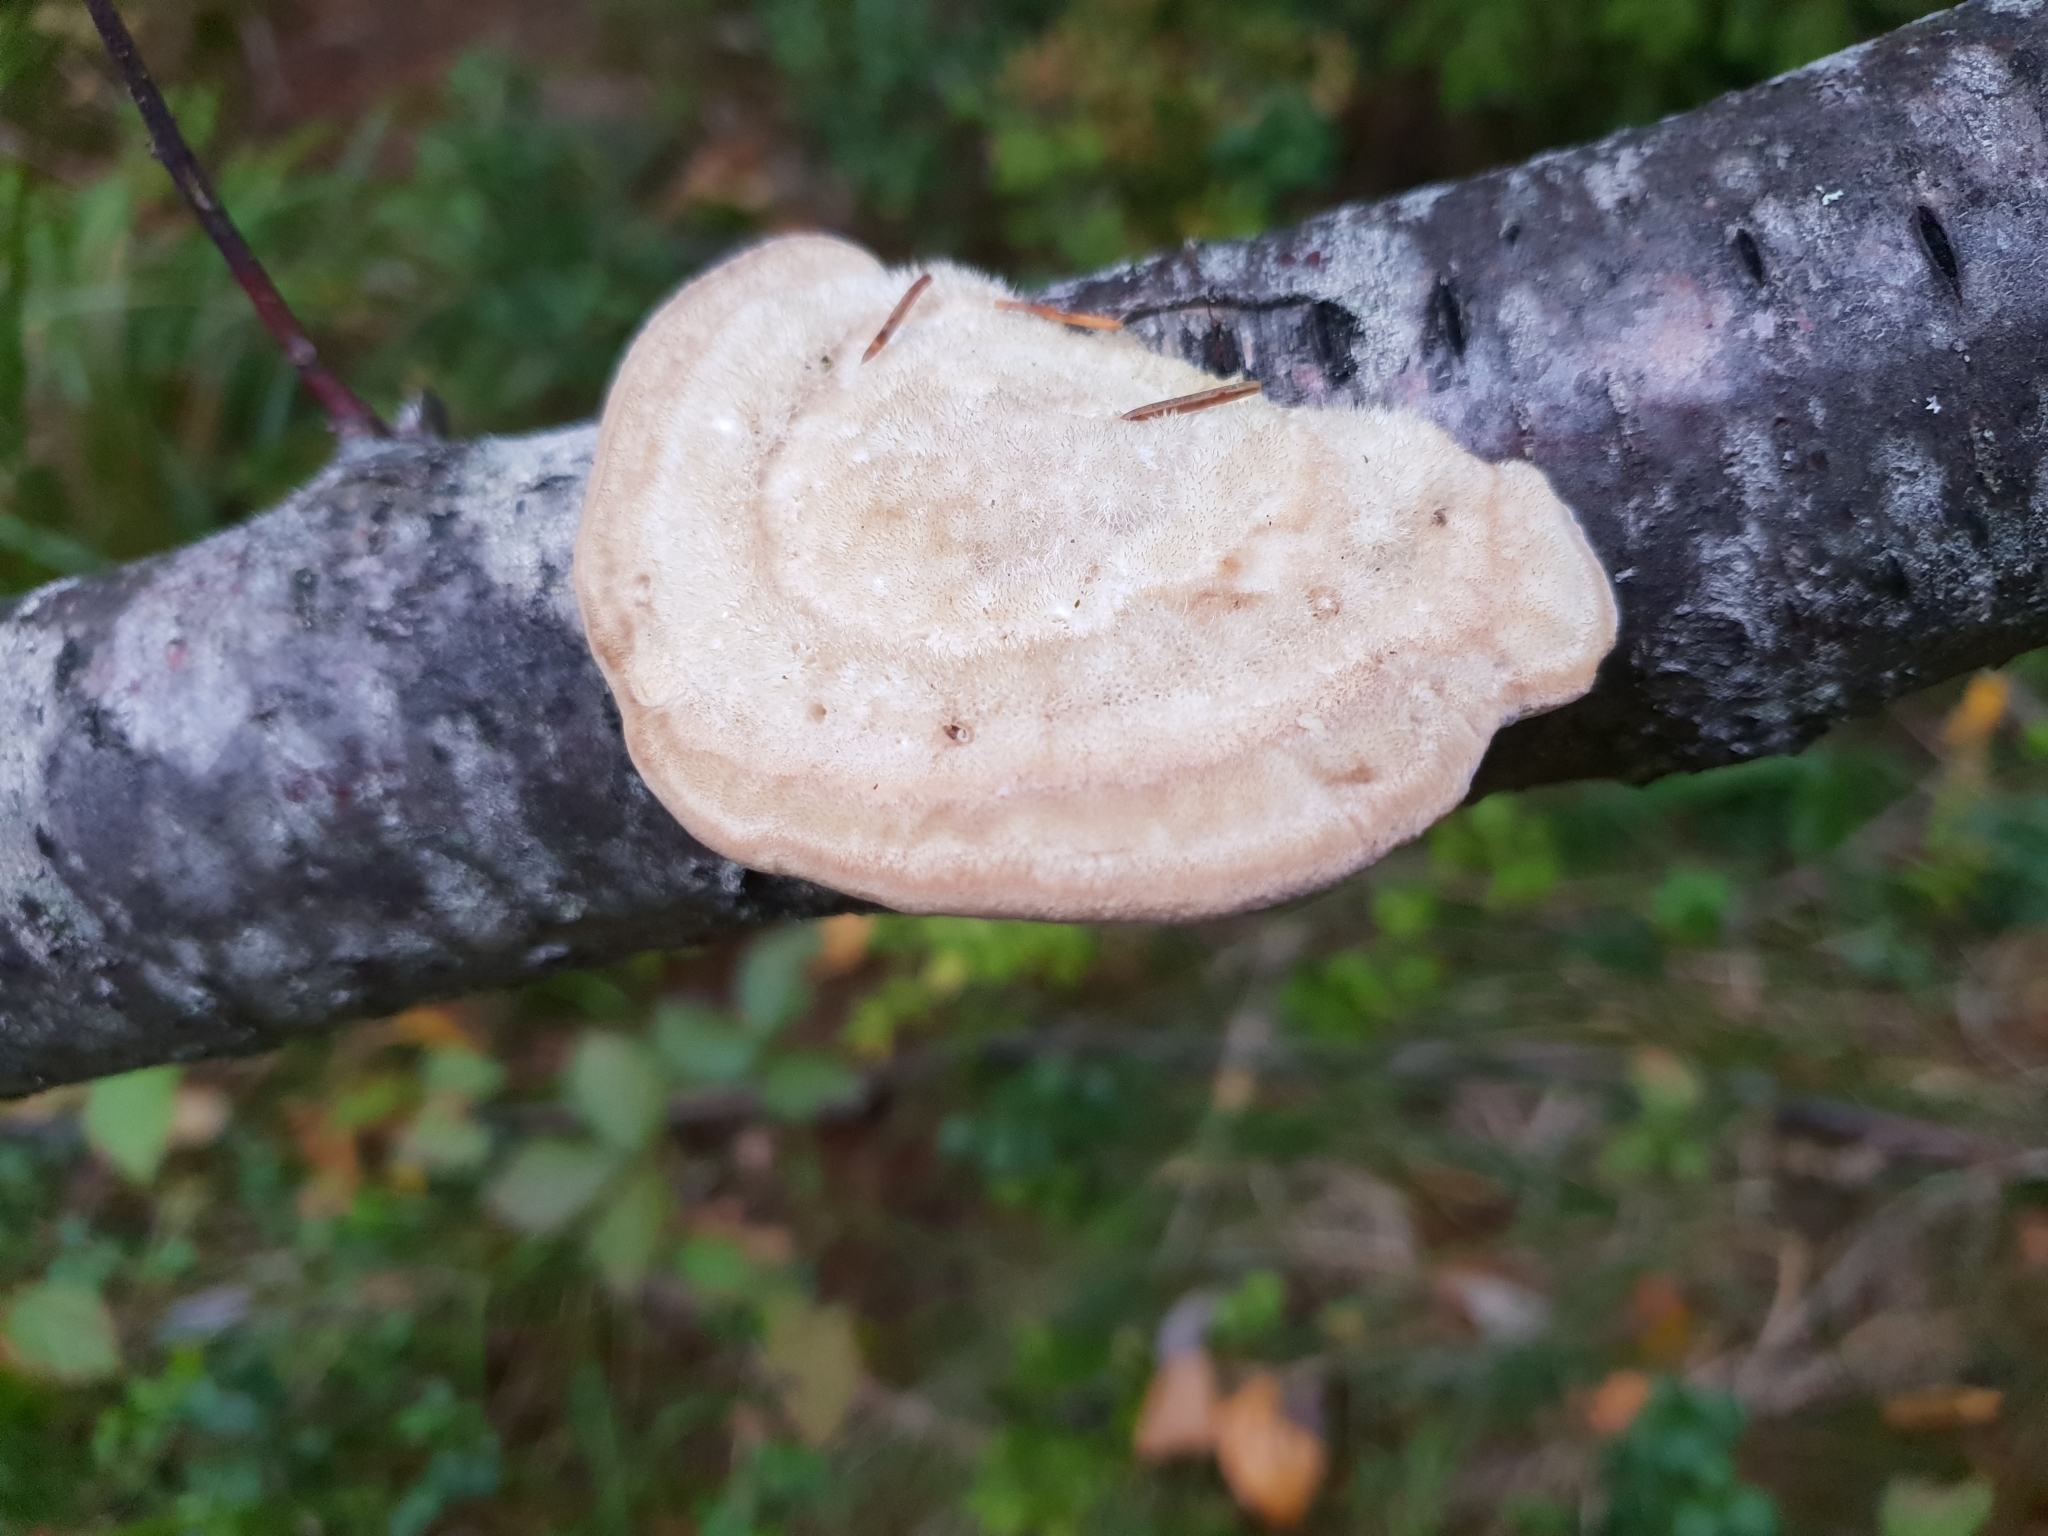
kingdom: Fungi
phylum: Basidiomycota
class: Agaricomycetes
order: Polyporales
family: Polyporaceae
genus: Trametes
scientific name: Trametes hirsuta
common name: Hairy bracket
